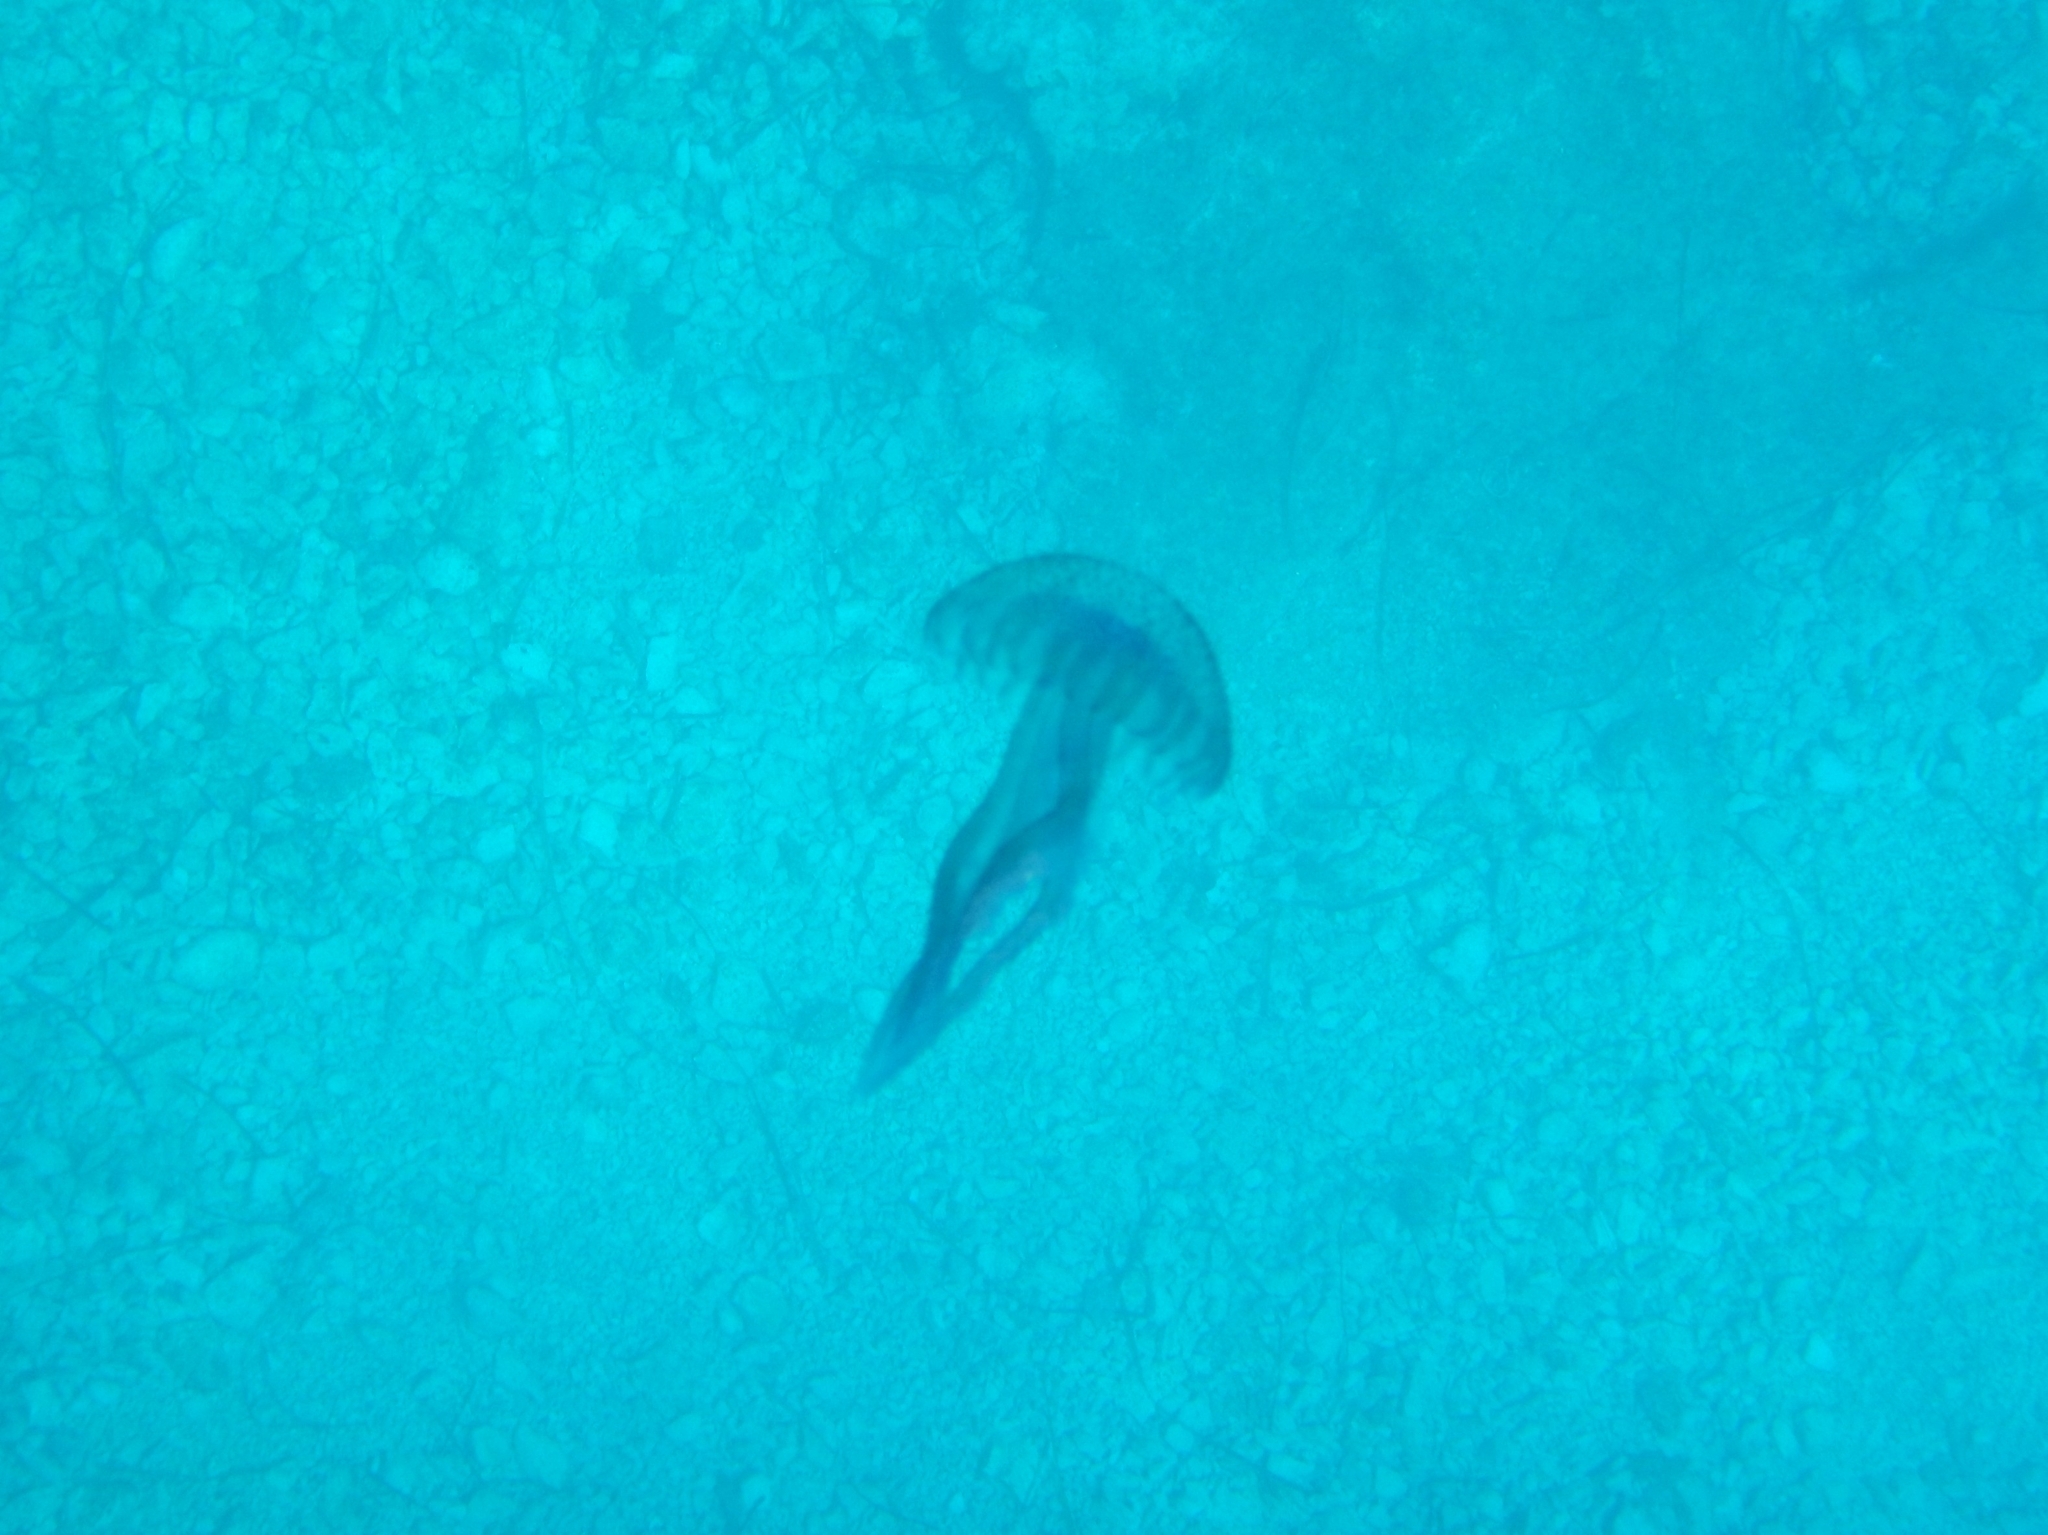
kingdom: Animalia
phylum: Cnidaria
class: Scyphozoa
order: Semaeostomeae
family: Pelagiidae
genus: Pelagia
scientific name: Pelagia noctiluca
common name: Mauve stinger
